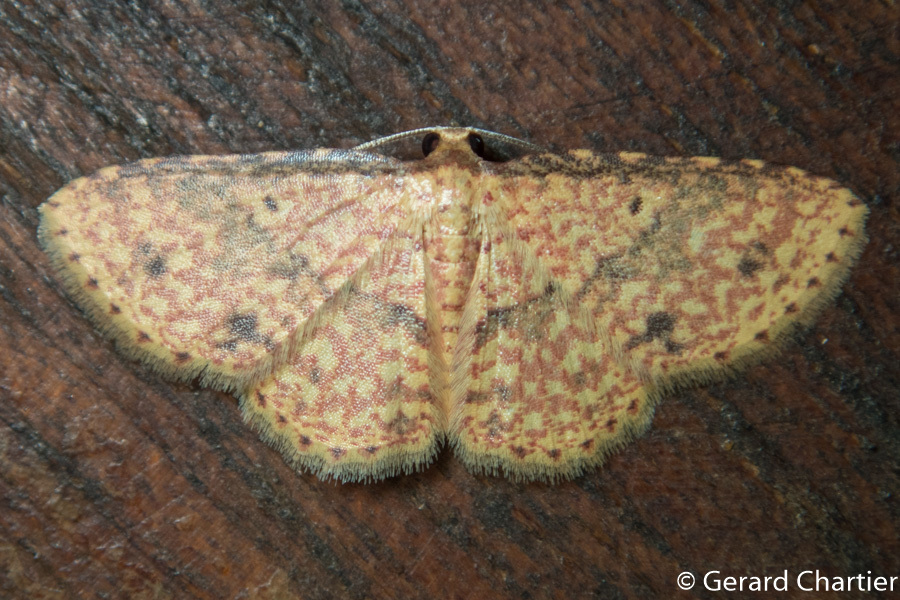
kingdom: Animalia
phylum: Arthropoda
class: Insecta
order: Lepidoptera
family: Geometridae
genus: Eois
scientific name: Eois phaneroscia
